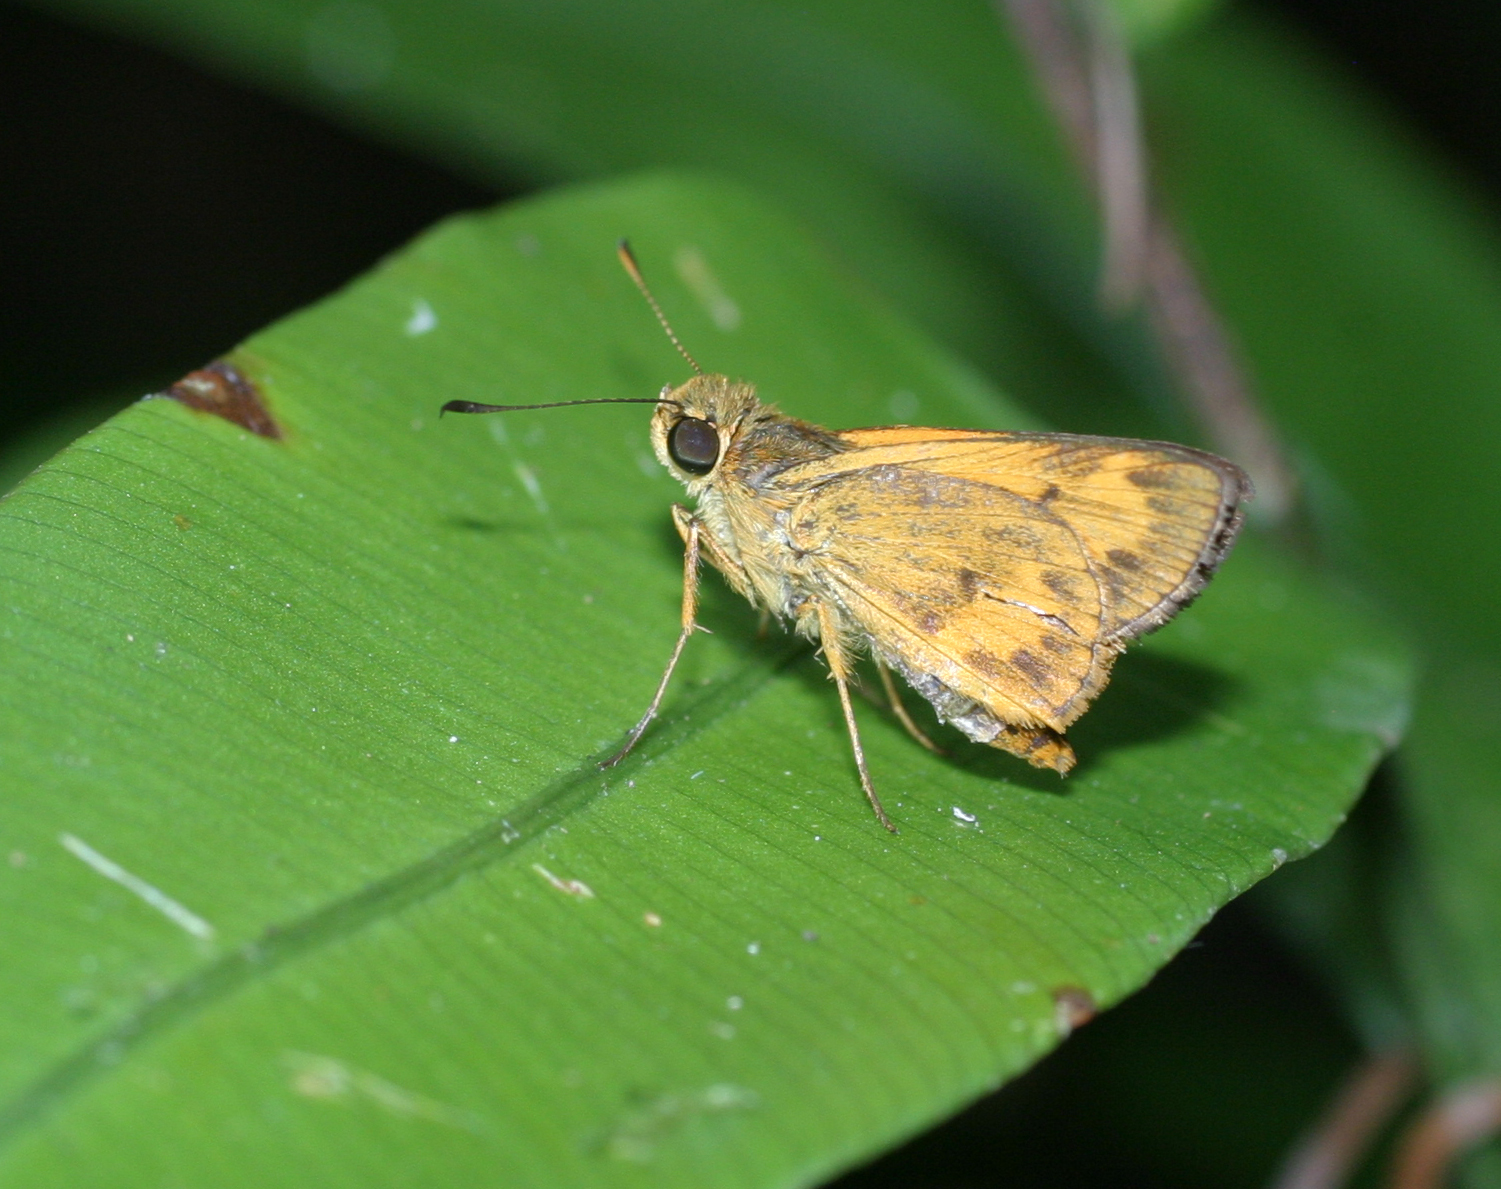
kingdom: Animalia
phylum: Arthropoda
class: Insecta
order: Lepidoptera
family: Hesperiidae
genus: Oriens
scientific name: Oriens gola
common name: Common dartlet
